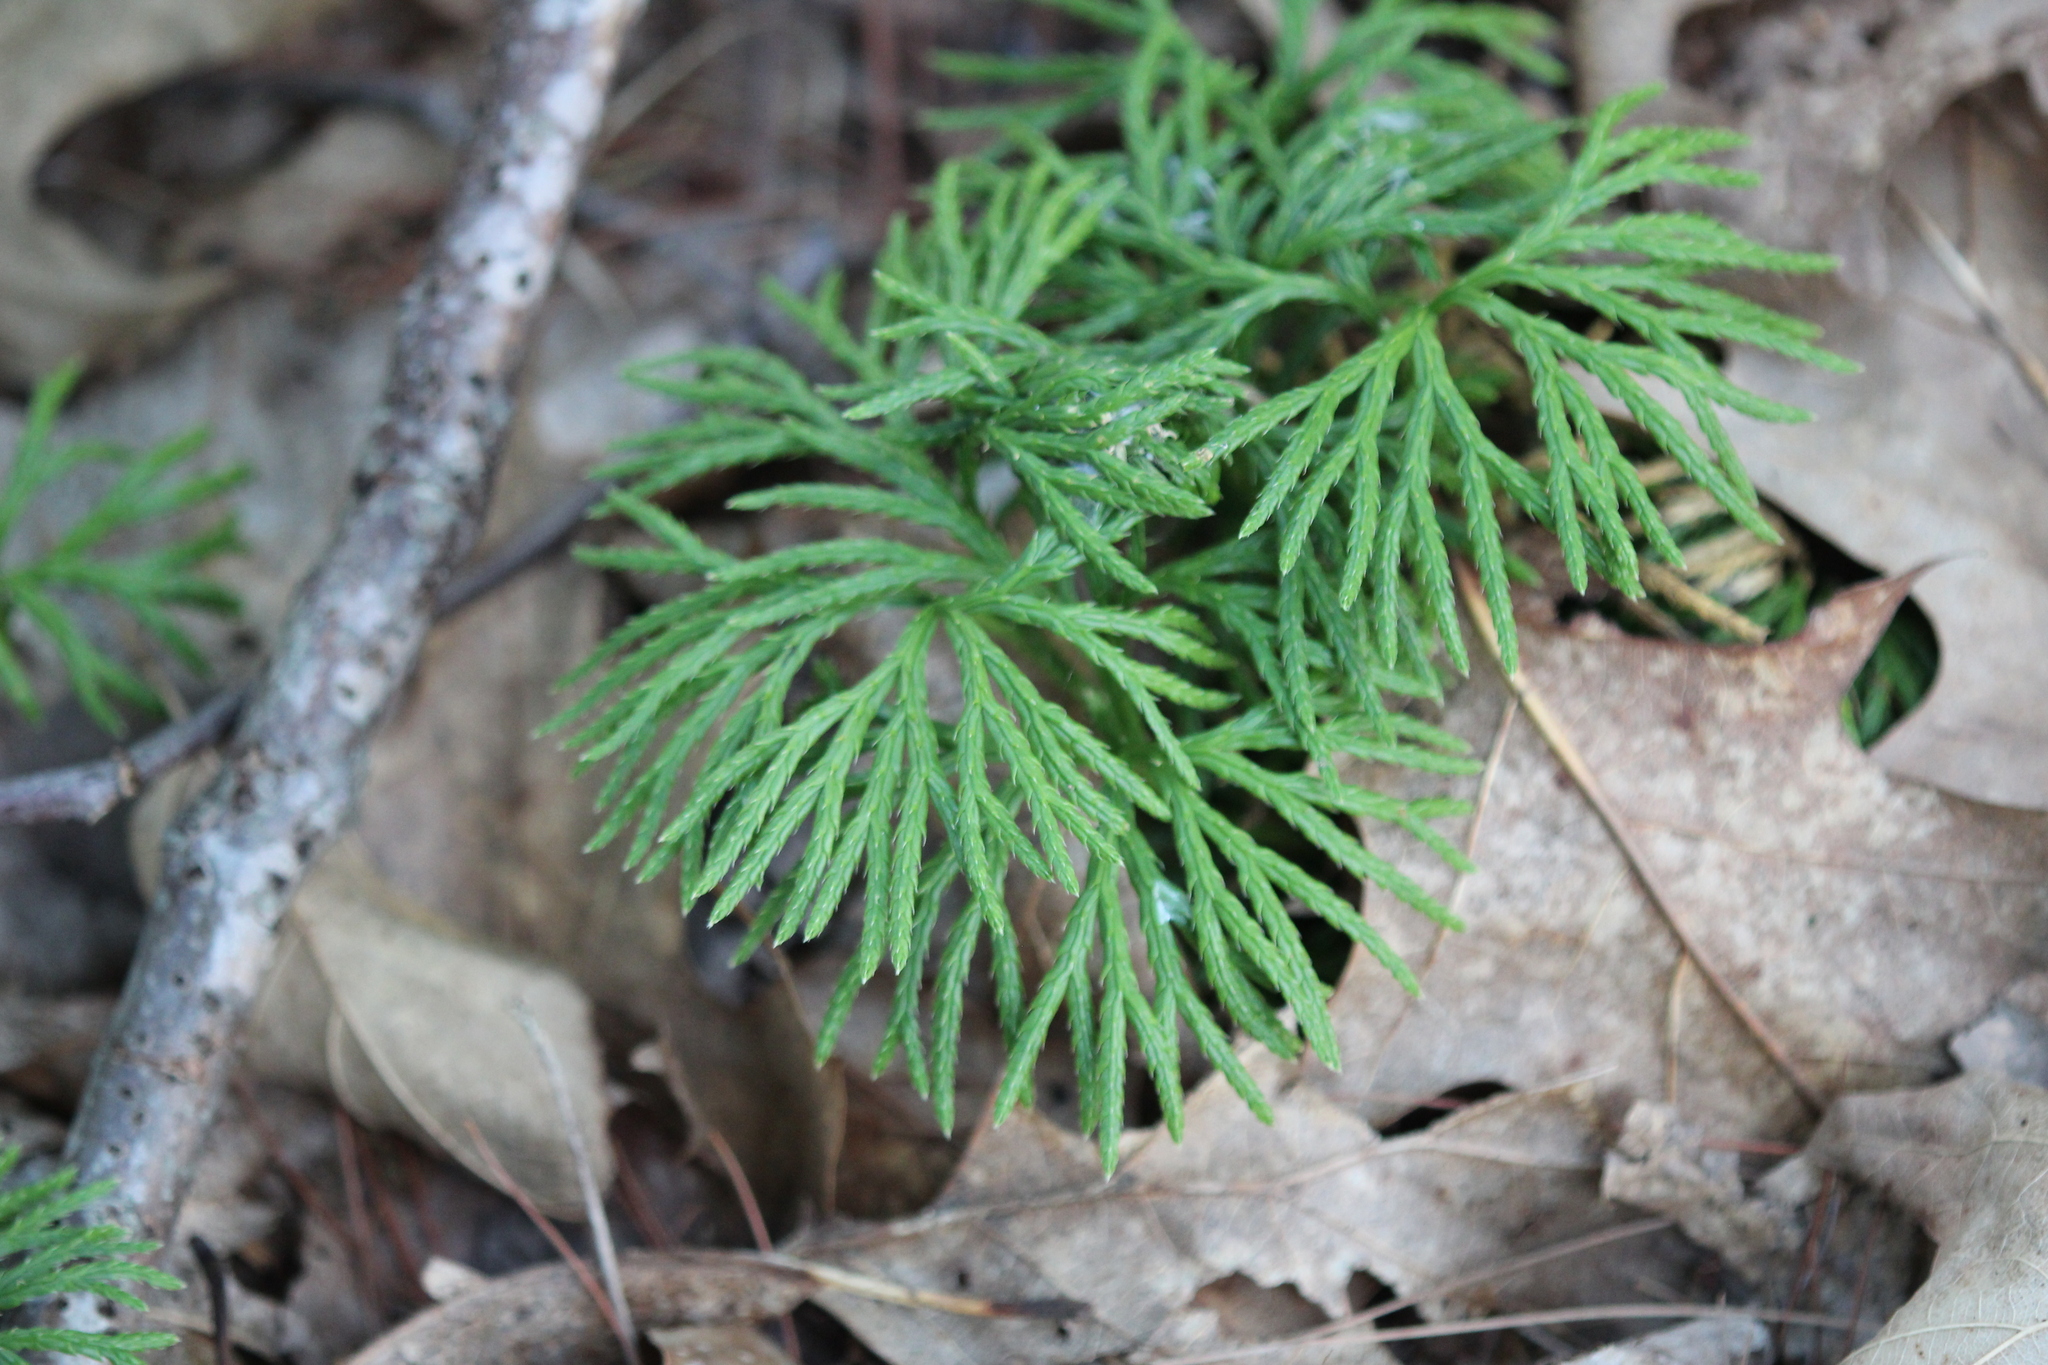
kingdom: Plantae
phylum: Tracheophyta
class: Lycopodiopsida
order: Lycopodiales
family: Lycopodiaceae
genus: Diphasiastrum
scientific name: Diphasiastrum digitatum
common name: Southern running-pine
